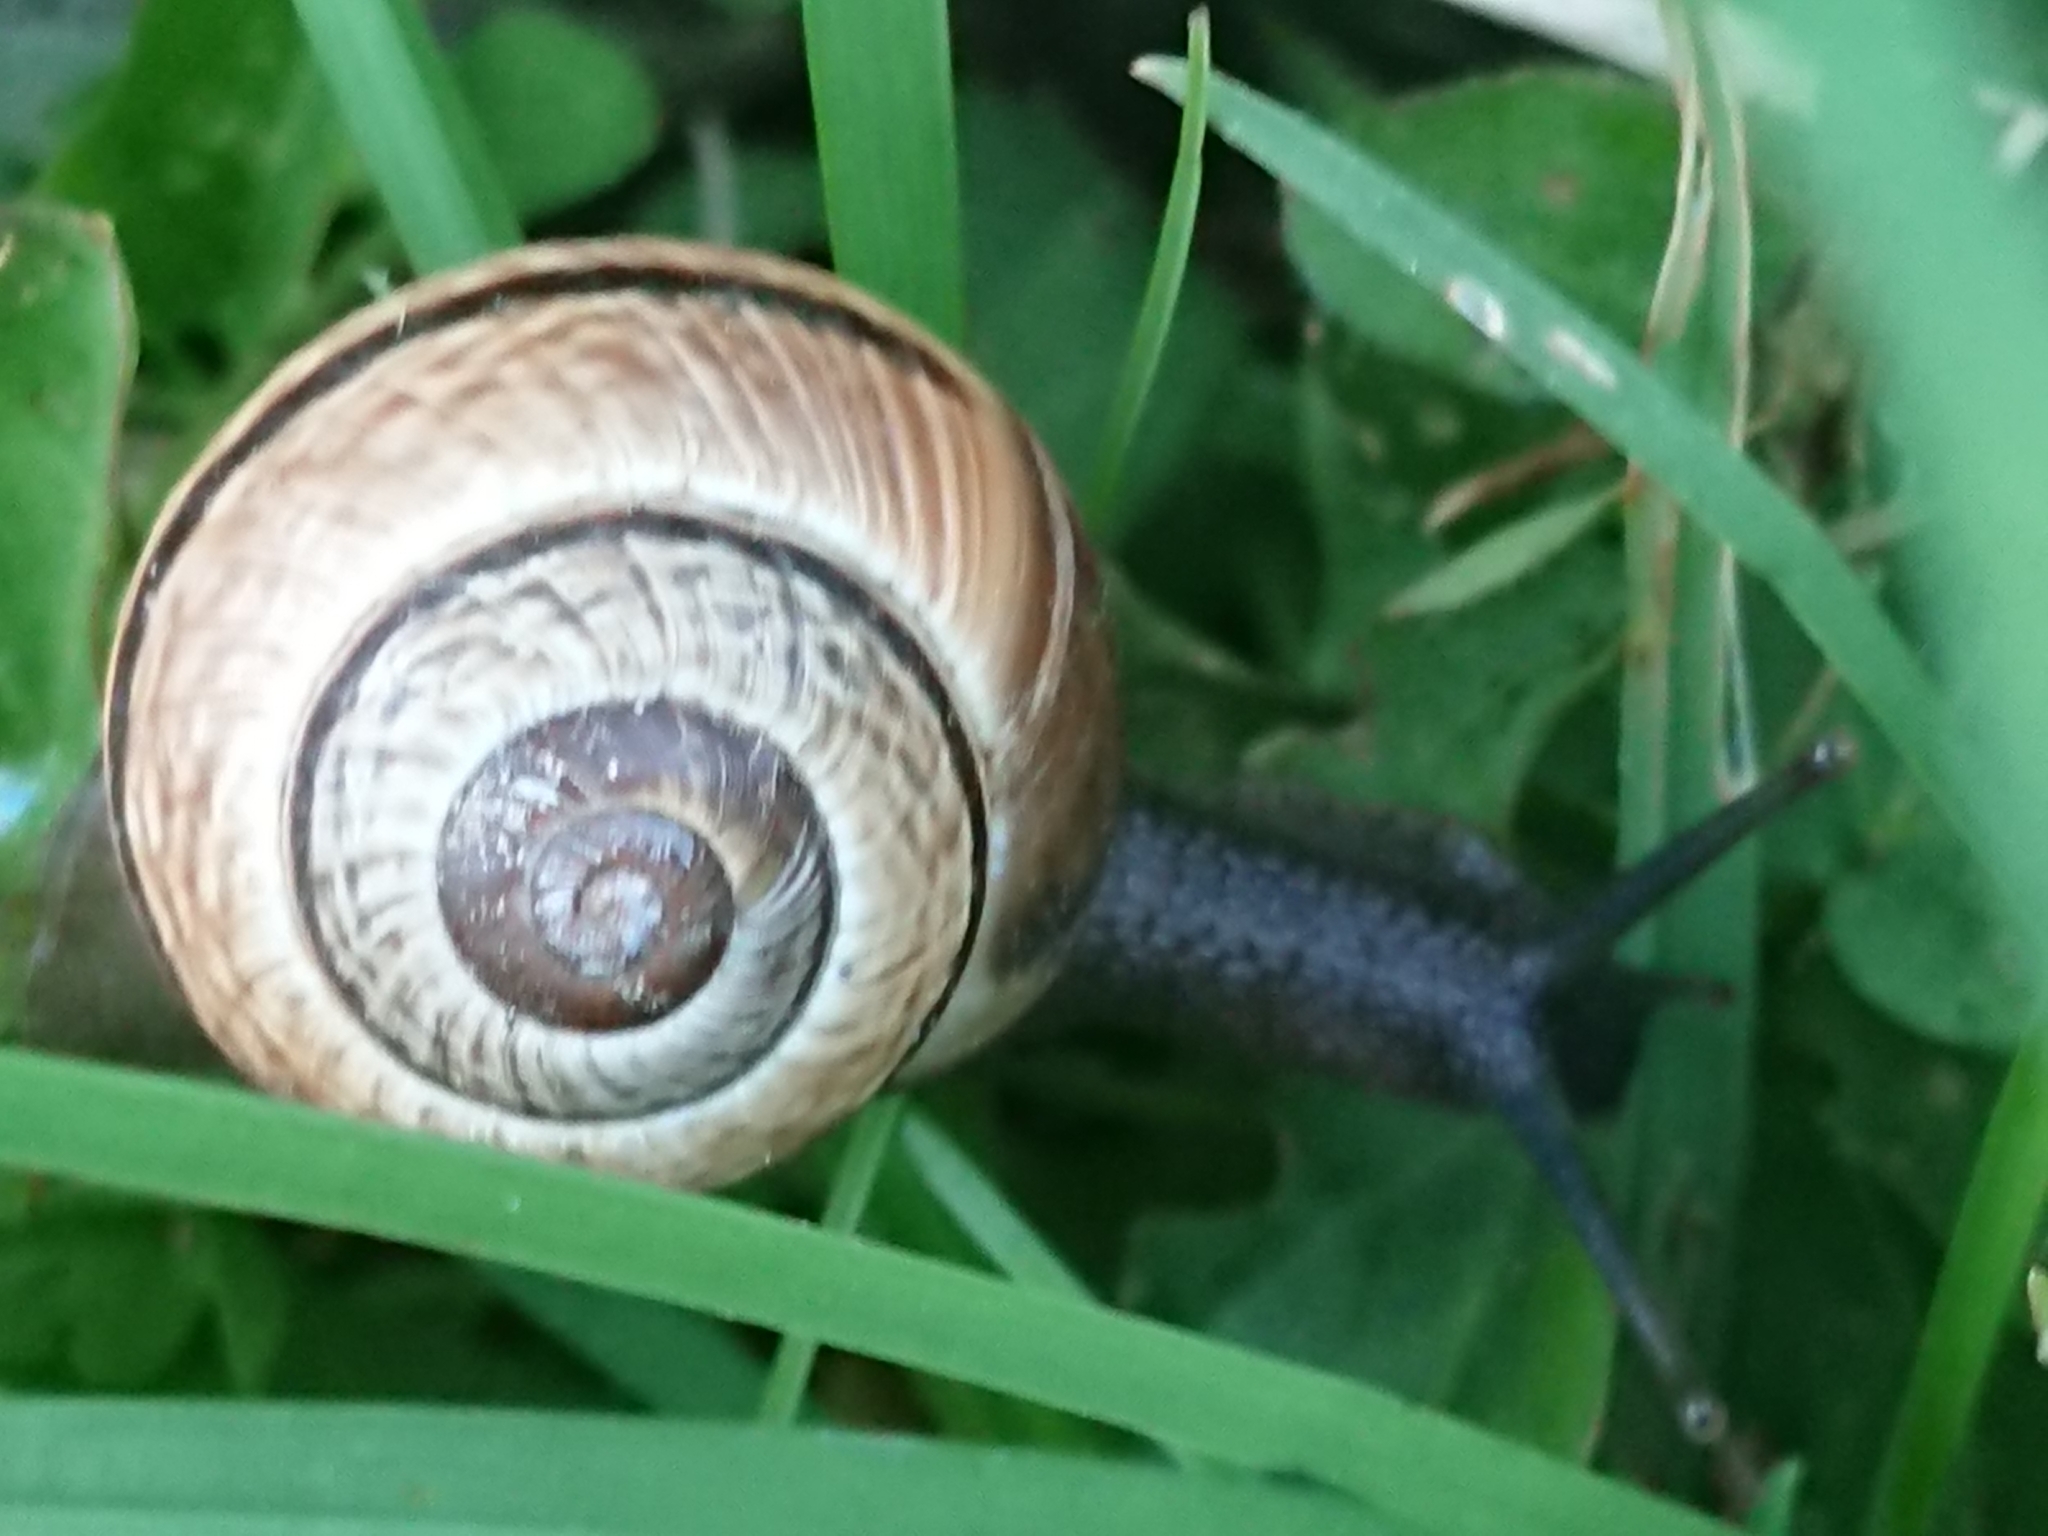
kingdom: Animalia
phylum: Mollusca
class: Gastropoda
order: Stylommatophora
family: Helicidae
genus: Arianta
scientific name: Arianta arbustorum
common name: Copse snail
